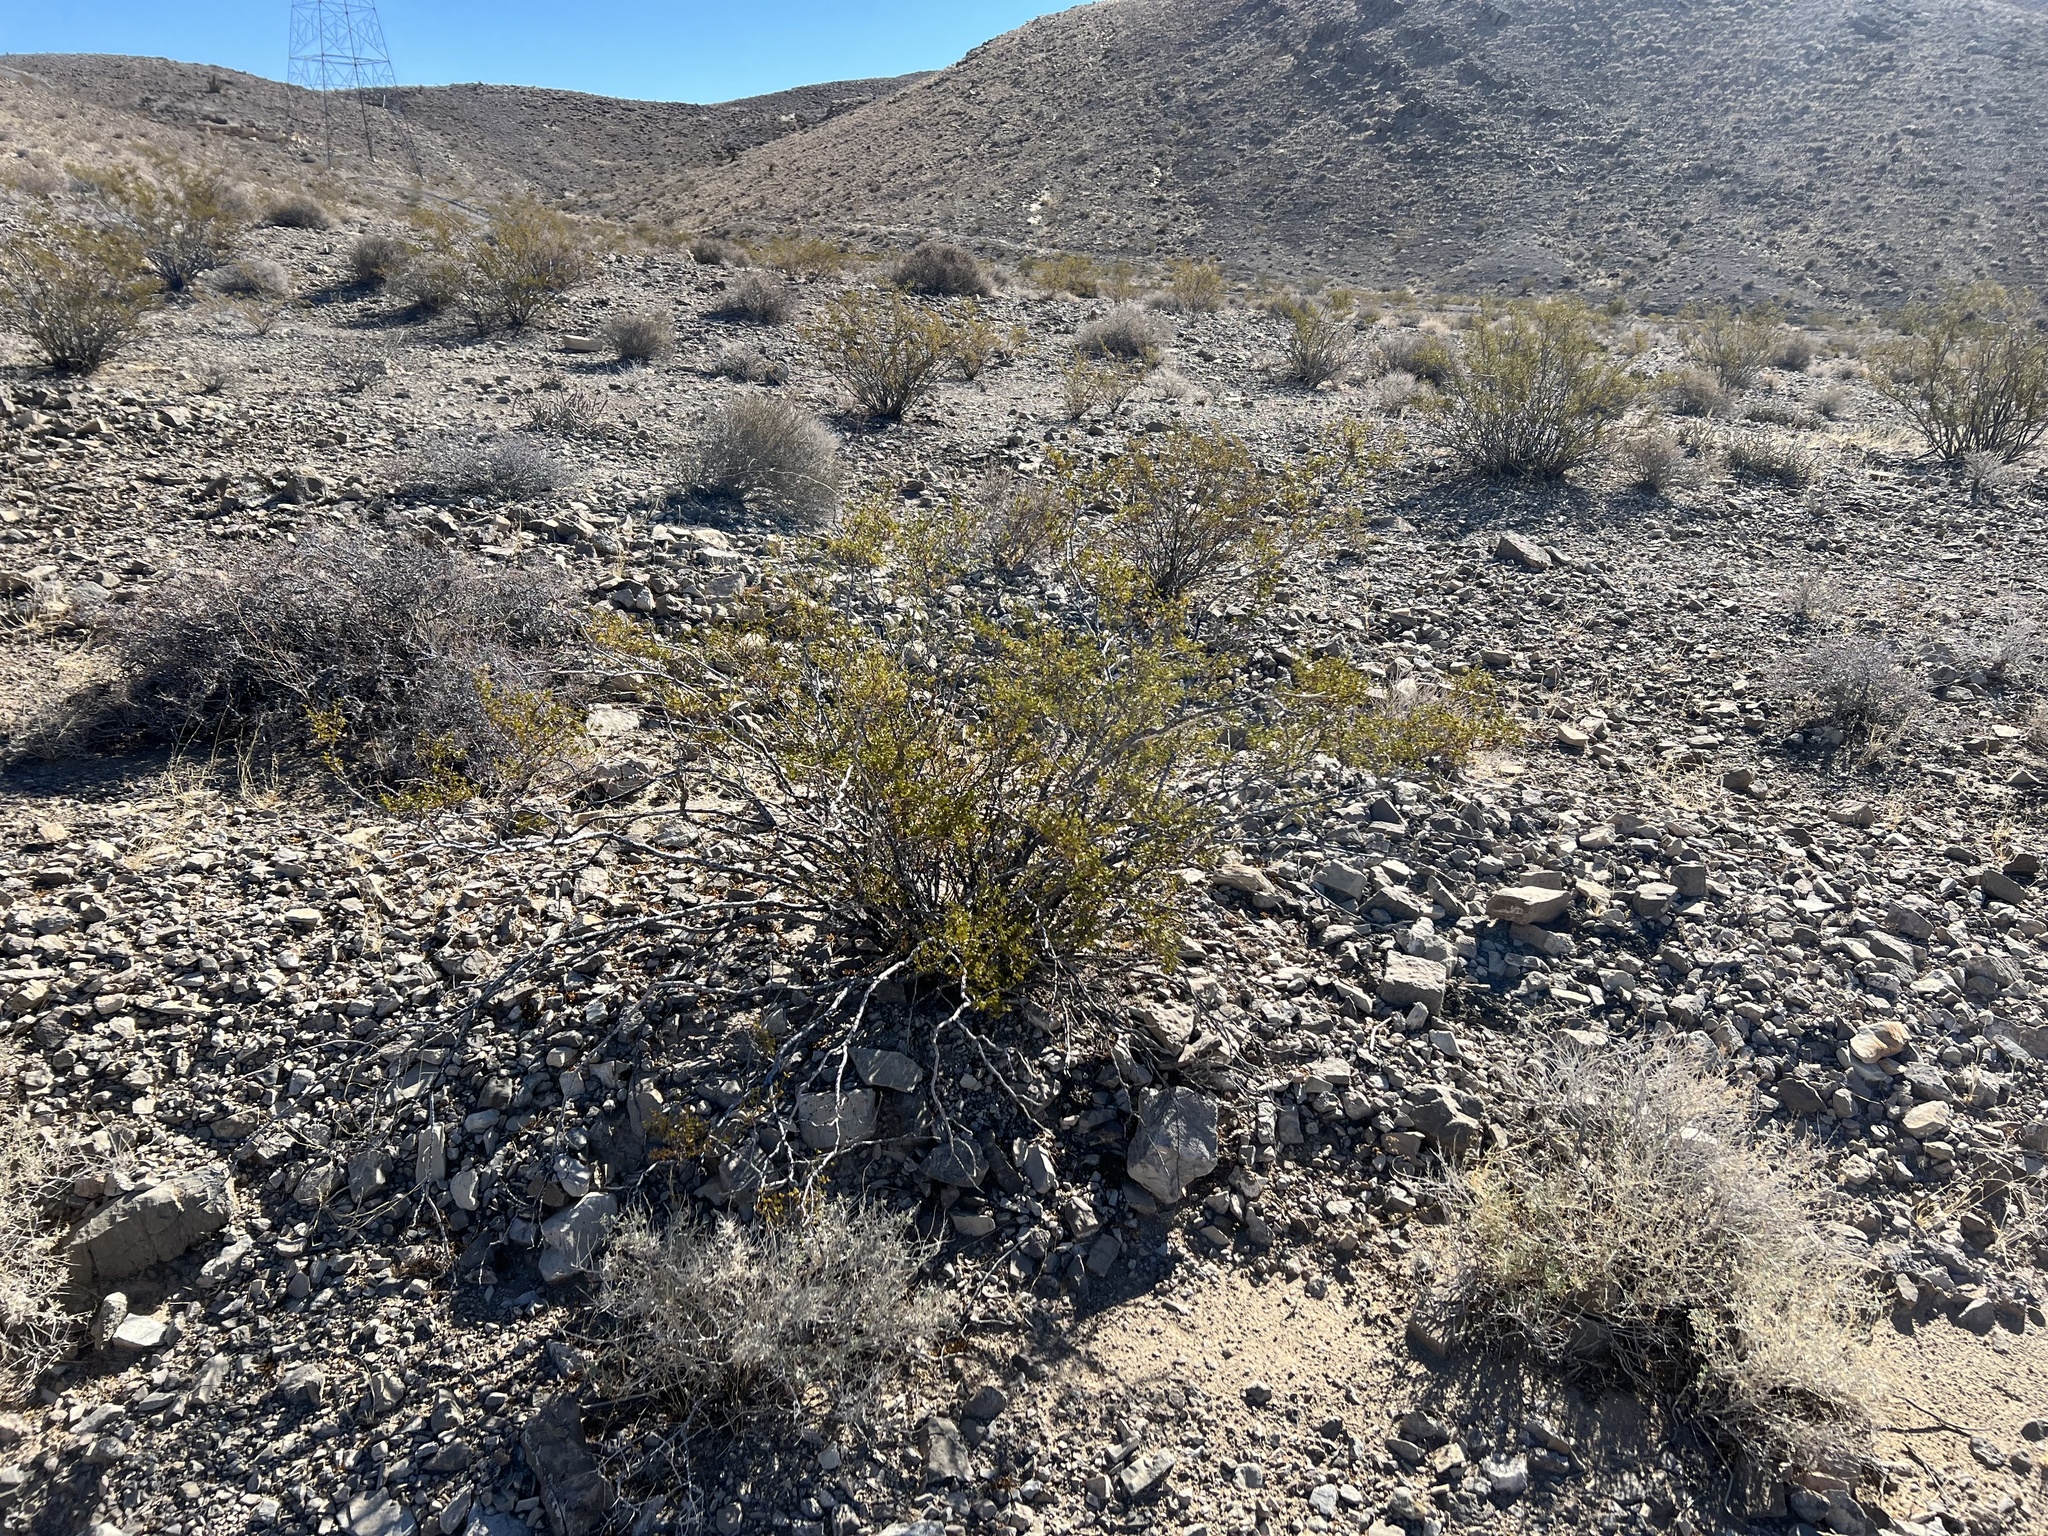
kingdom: Plantae
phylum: Tracheophyta
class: Magnoliopsida
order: Zygophyllales
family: Zygophyllaceae
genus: Larrea
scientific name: Larrea tridentata
